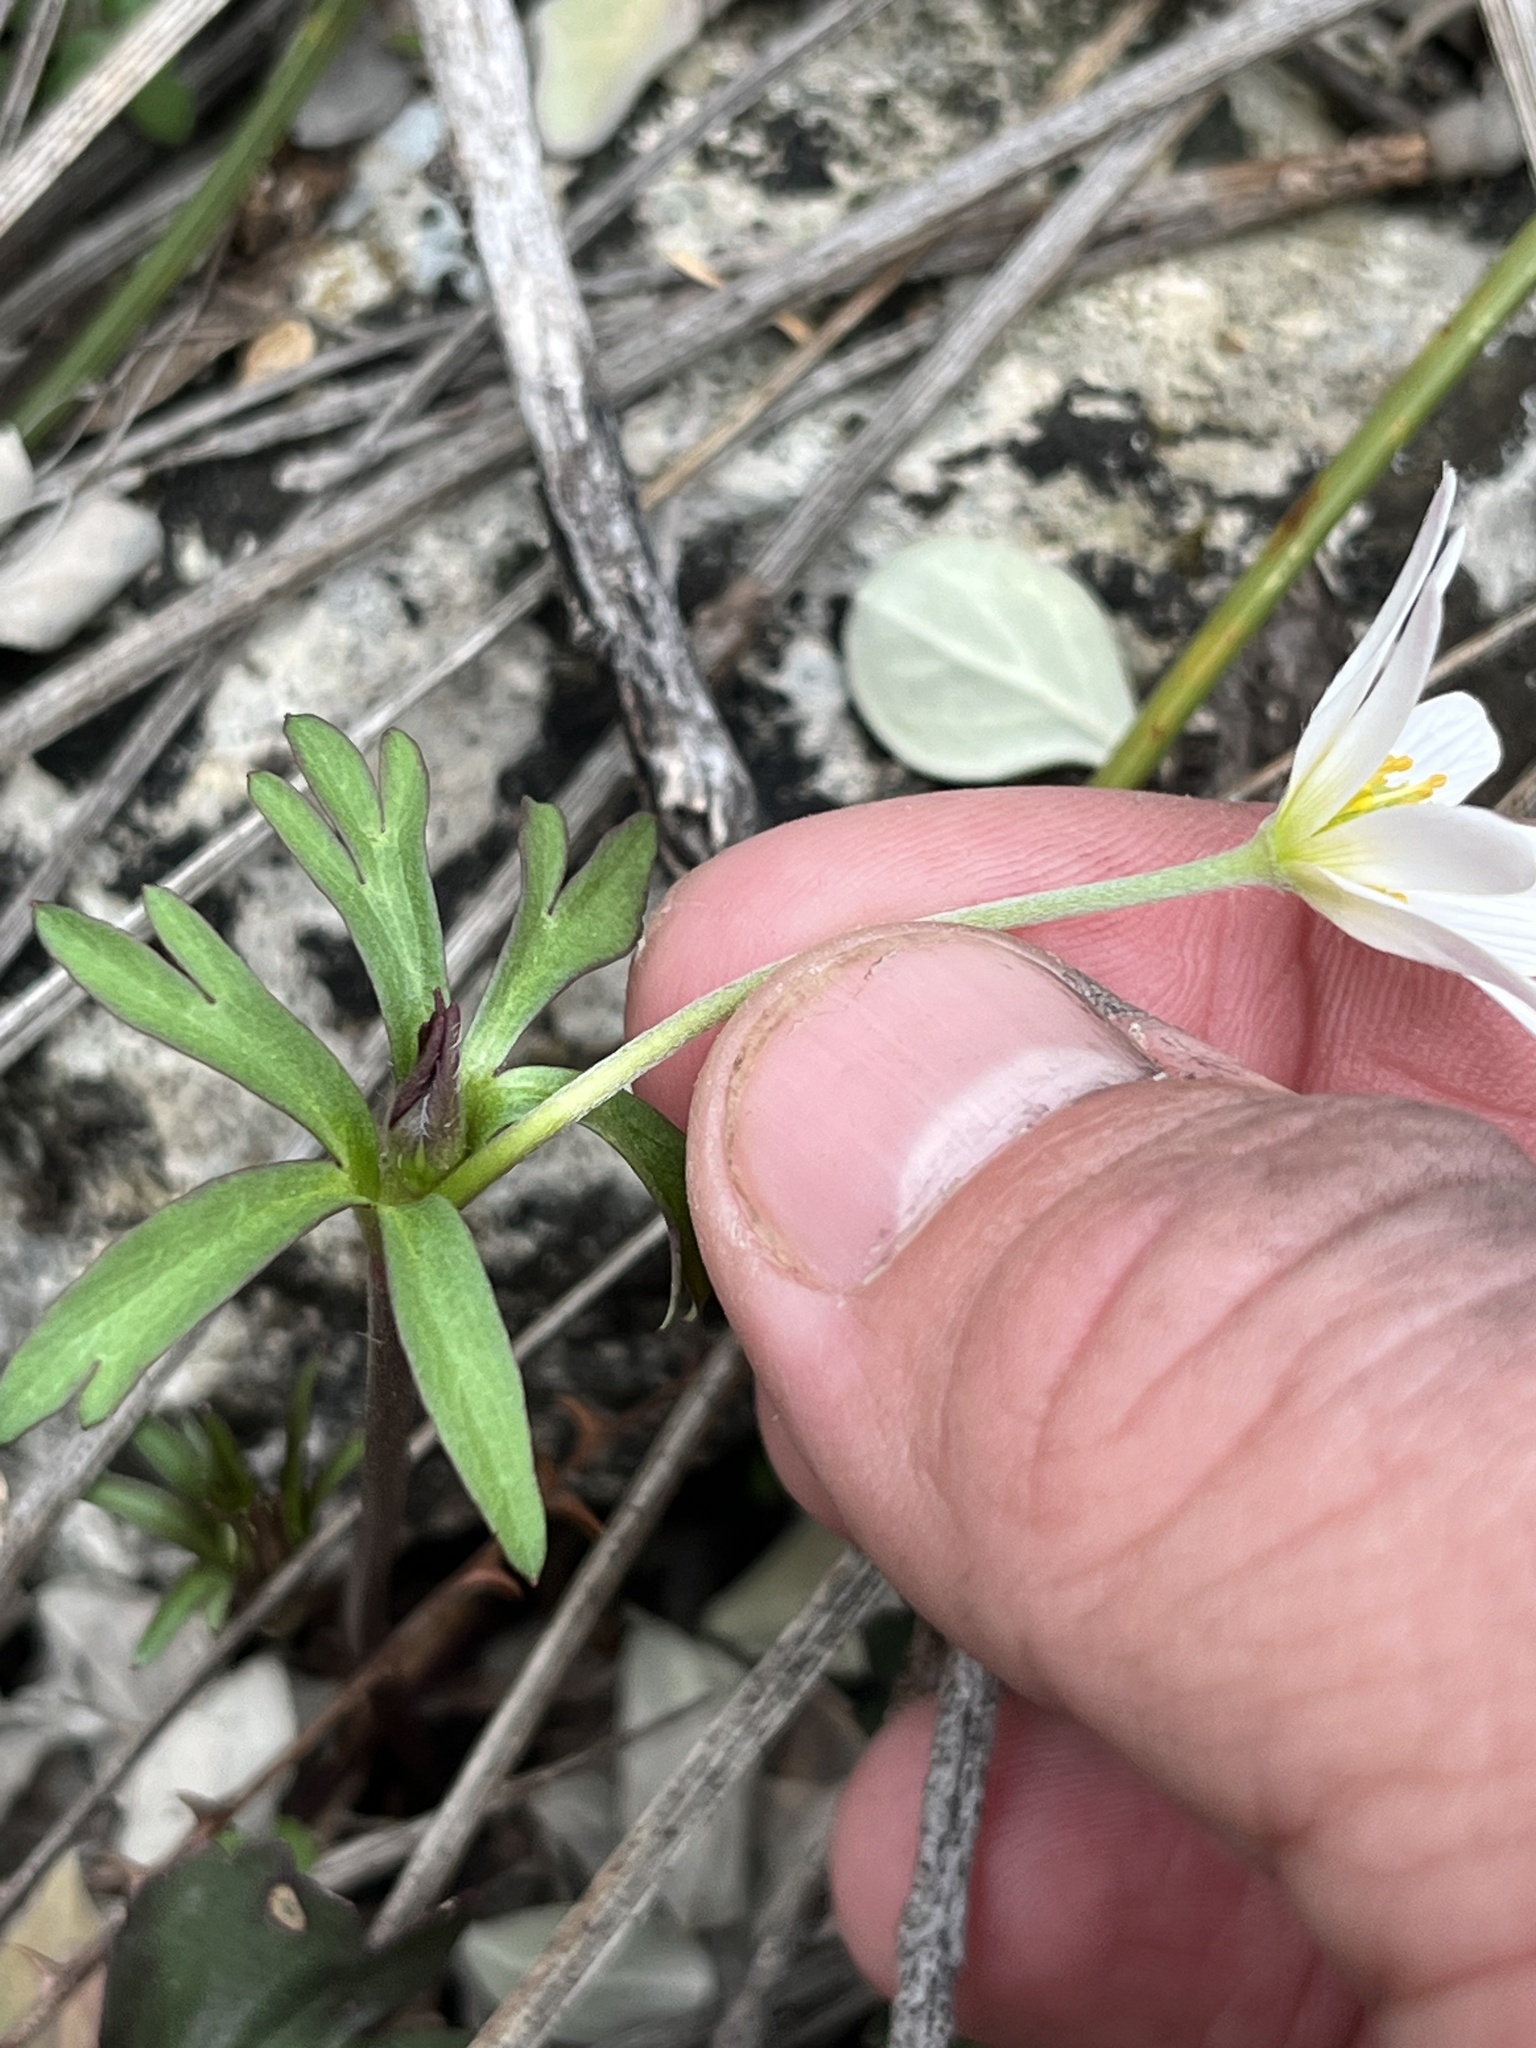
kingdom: Plantae
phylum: Tracheophyta
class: Magnoliopsida
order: Ranunculales
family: Ranunculaceae
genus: Anemone
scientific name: Anemone edwardsiana
